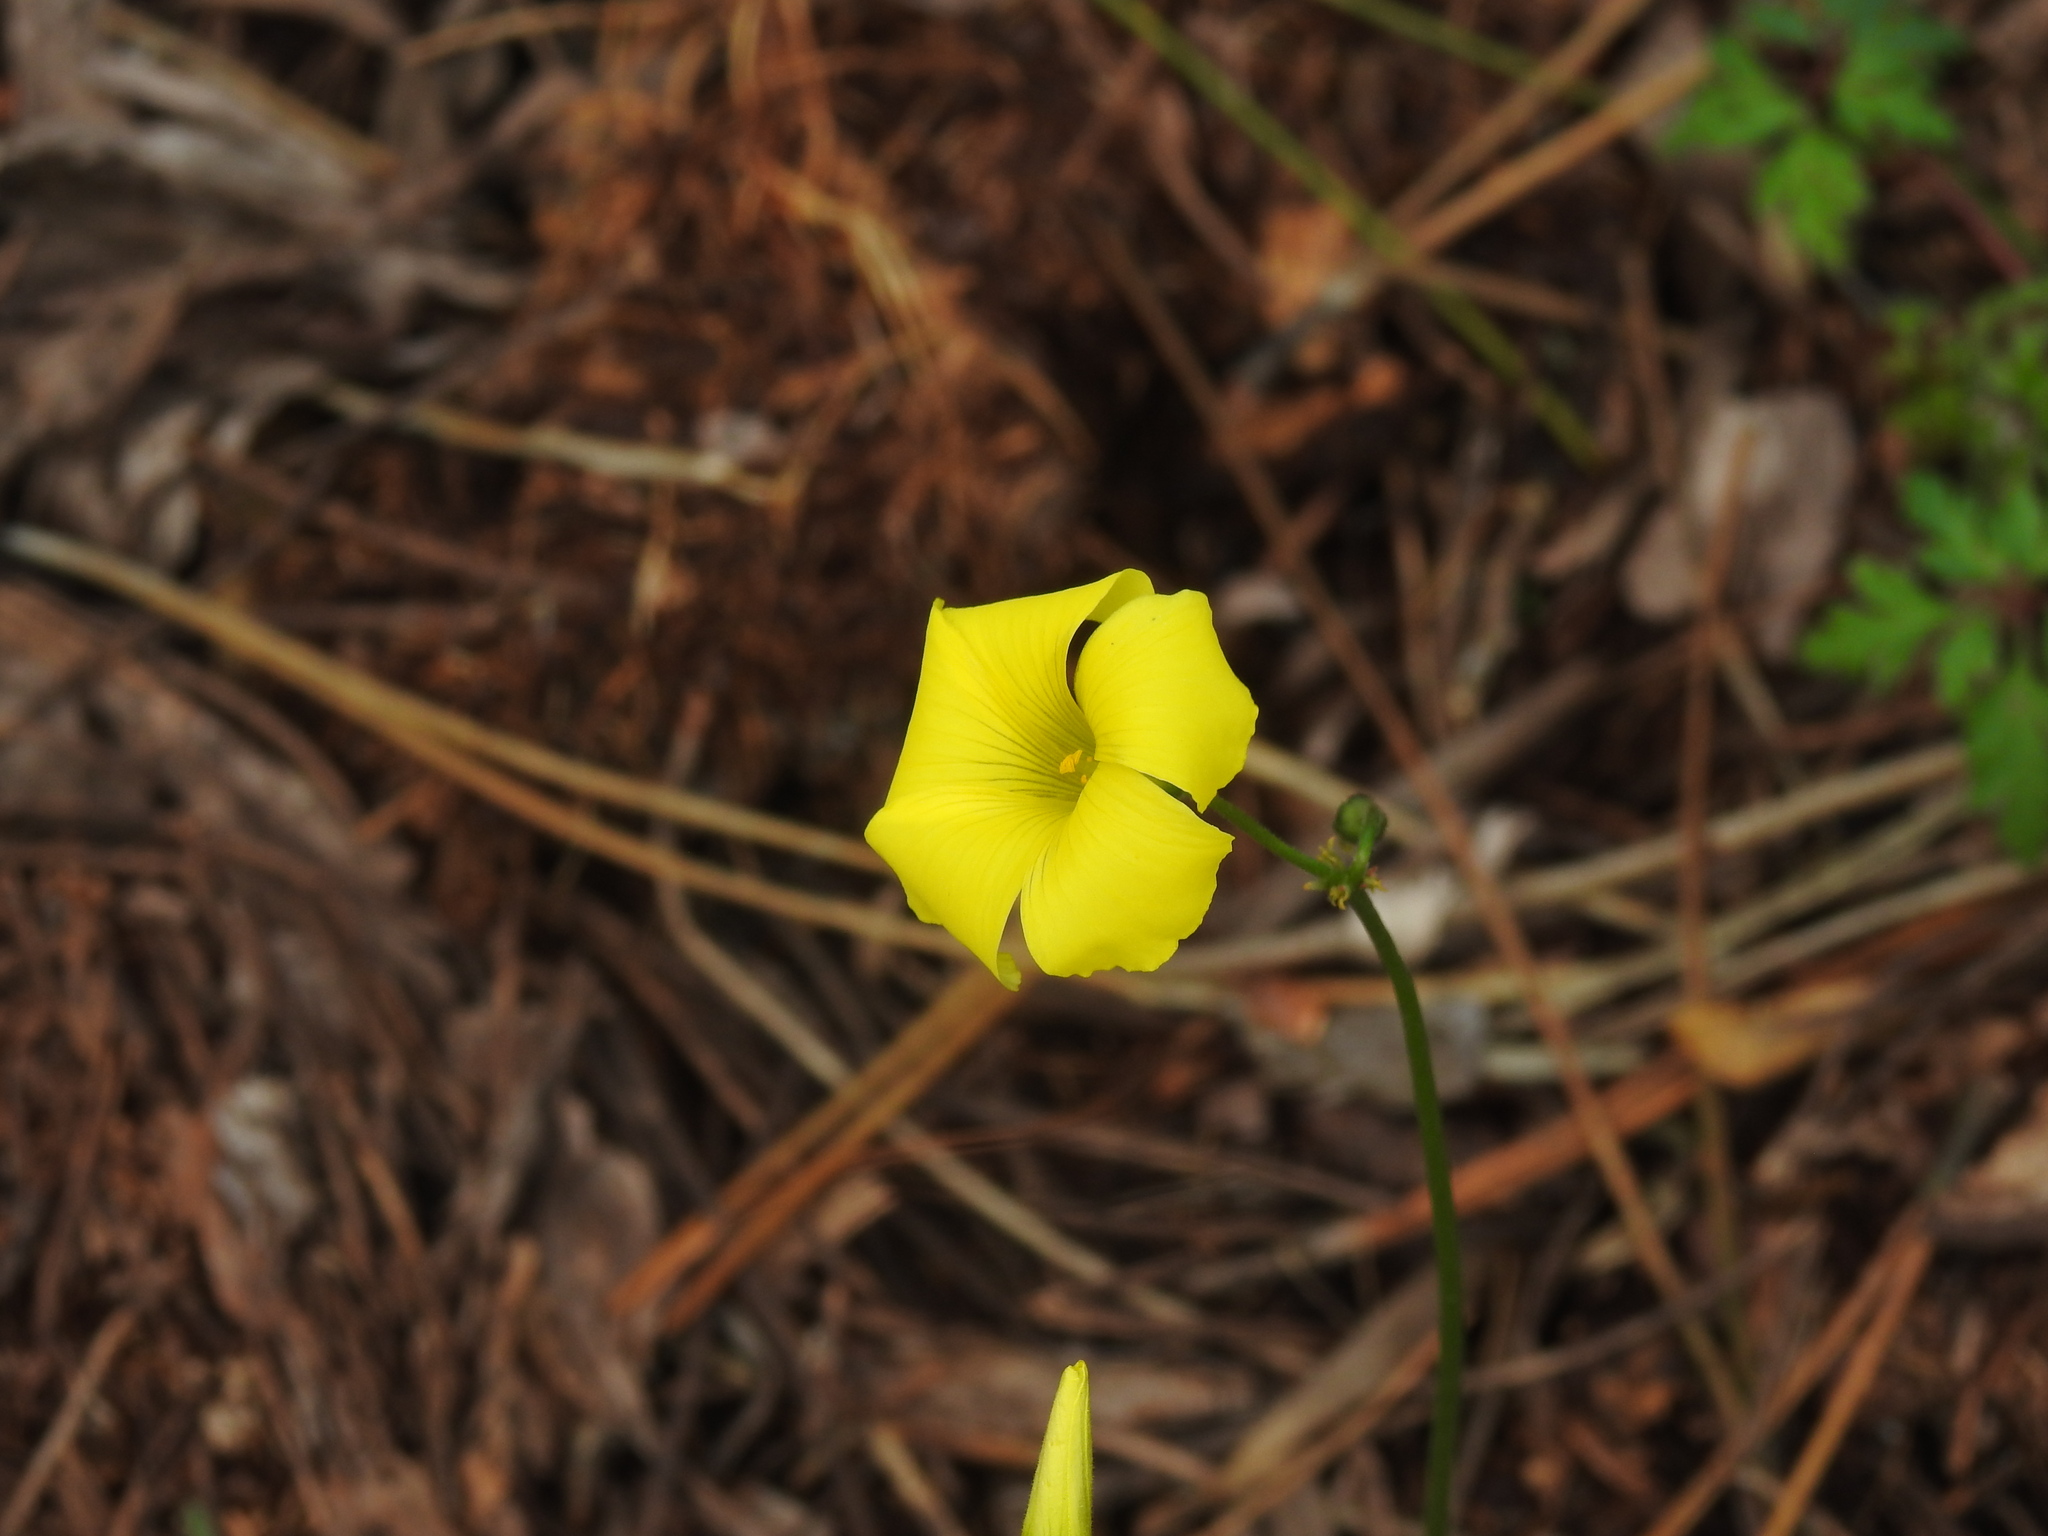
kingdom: Plantae
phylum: Tracheophyta
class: Magnoliopsida
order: Oxalidales
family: Oxalidaceae
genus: Oxalis
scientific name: Oxalis pes-caprae
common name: Bermuda-buttercup
